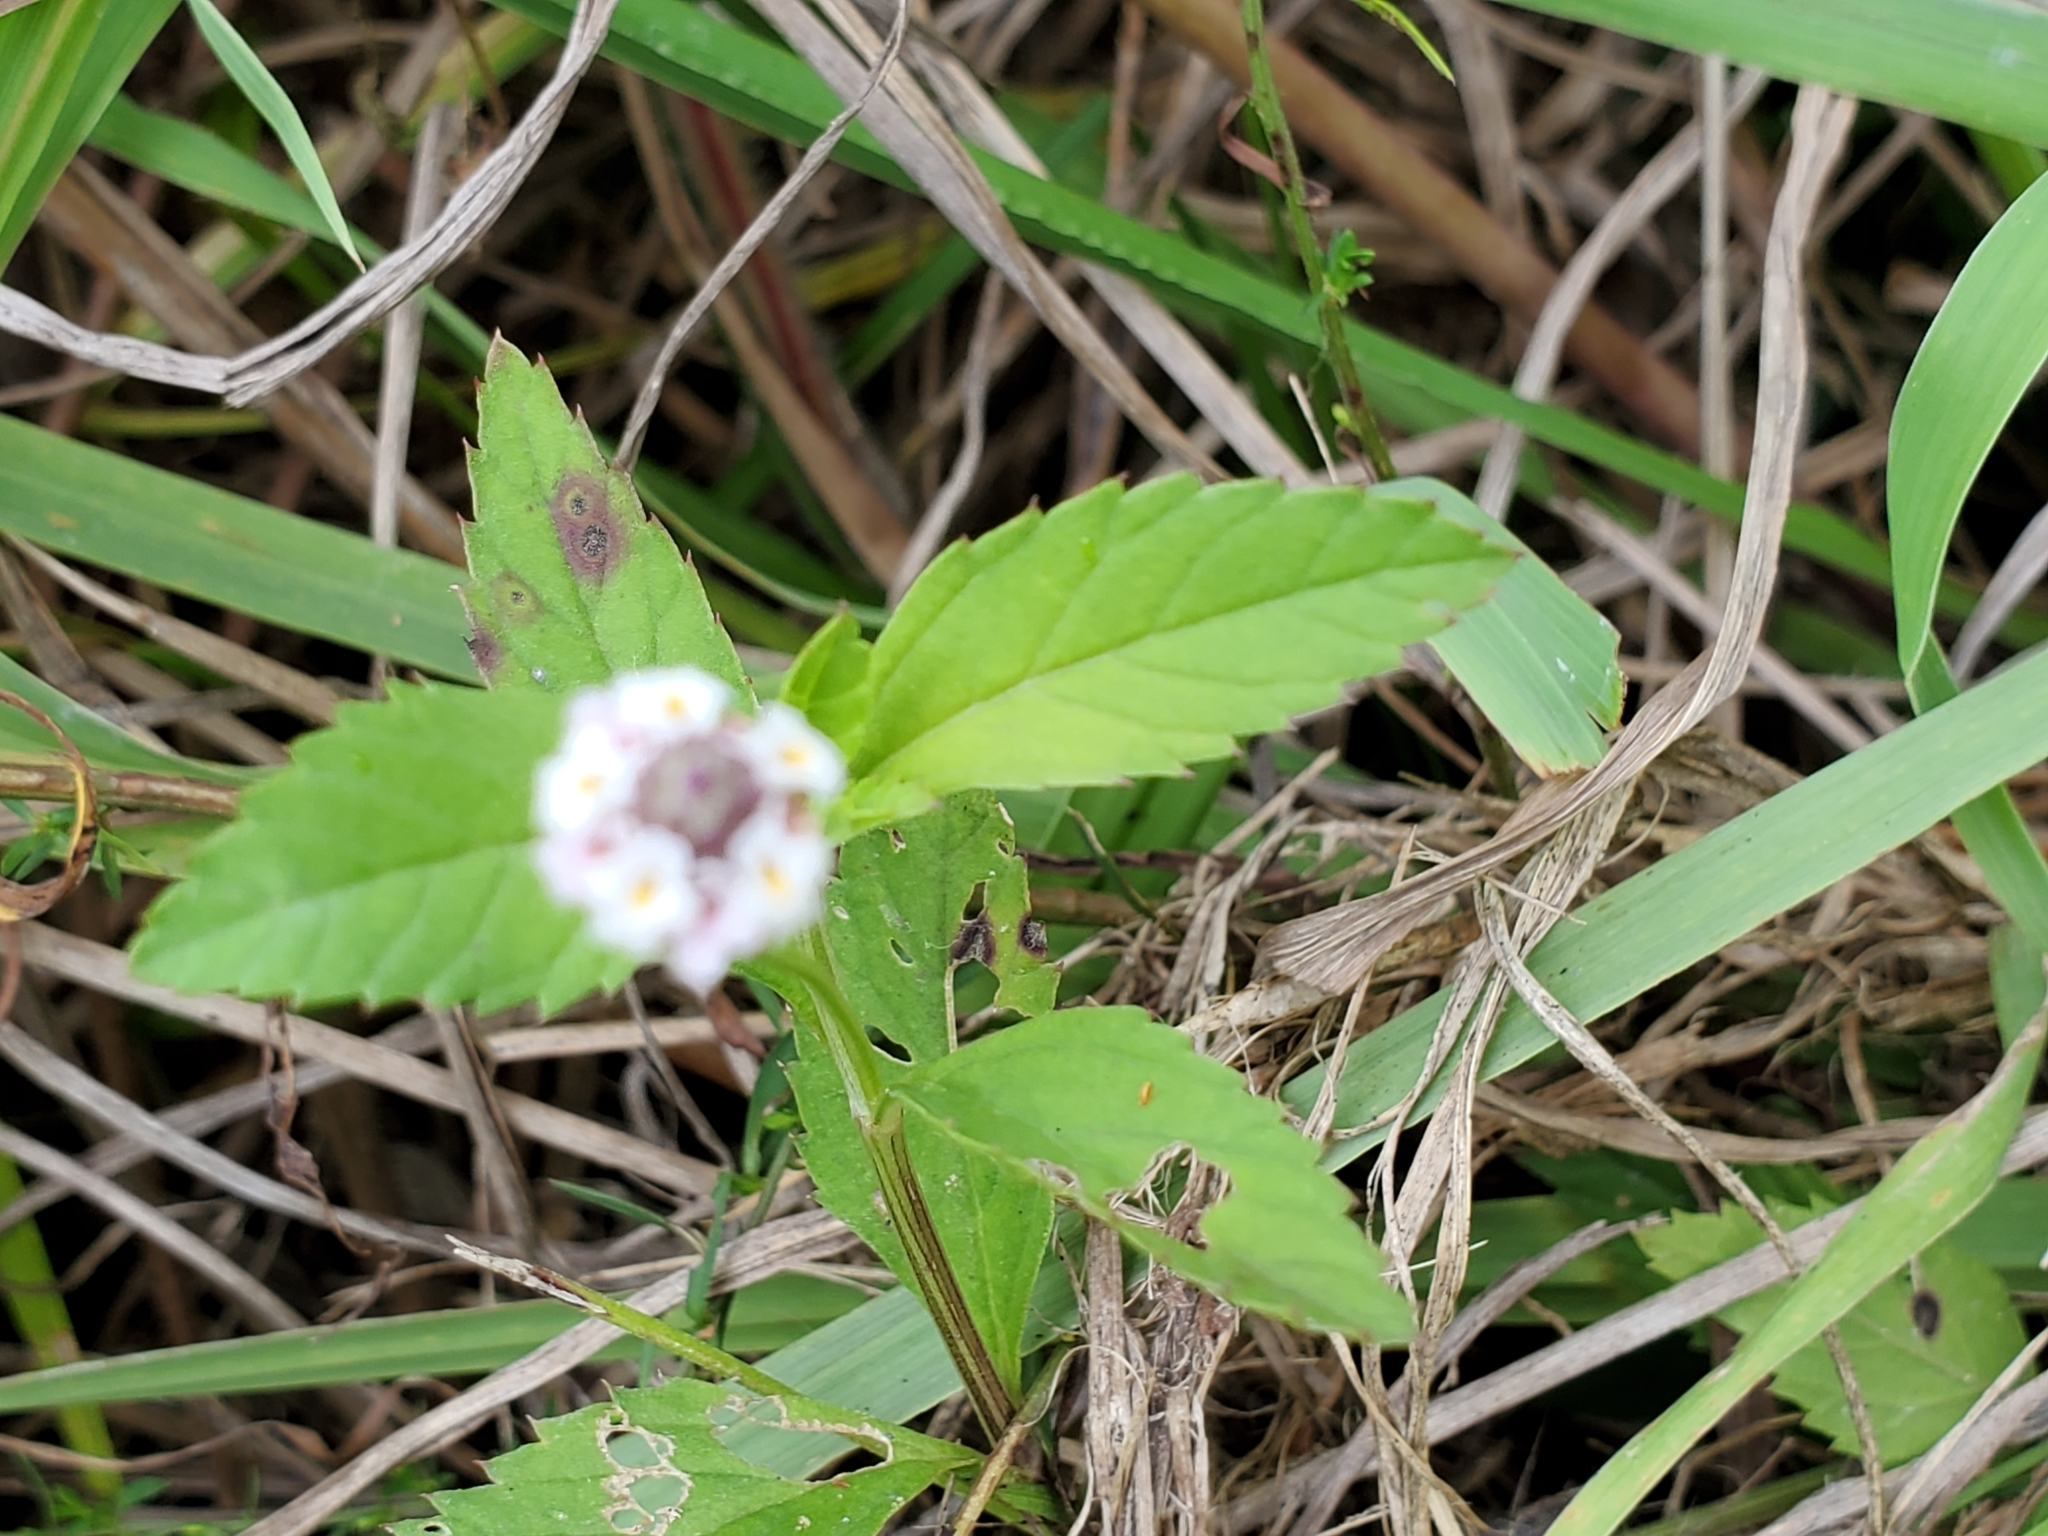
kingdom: Plantae
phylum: Tracheophyta
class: Magnoliopsida
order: Lamiales
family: Verbenaceae
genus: Phyla
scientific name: Phyla lanceolata
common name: Northern fogfruit
